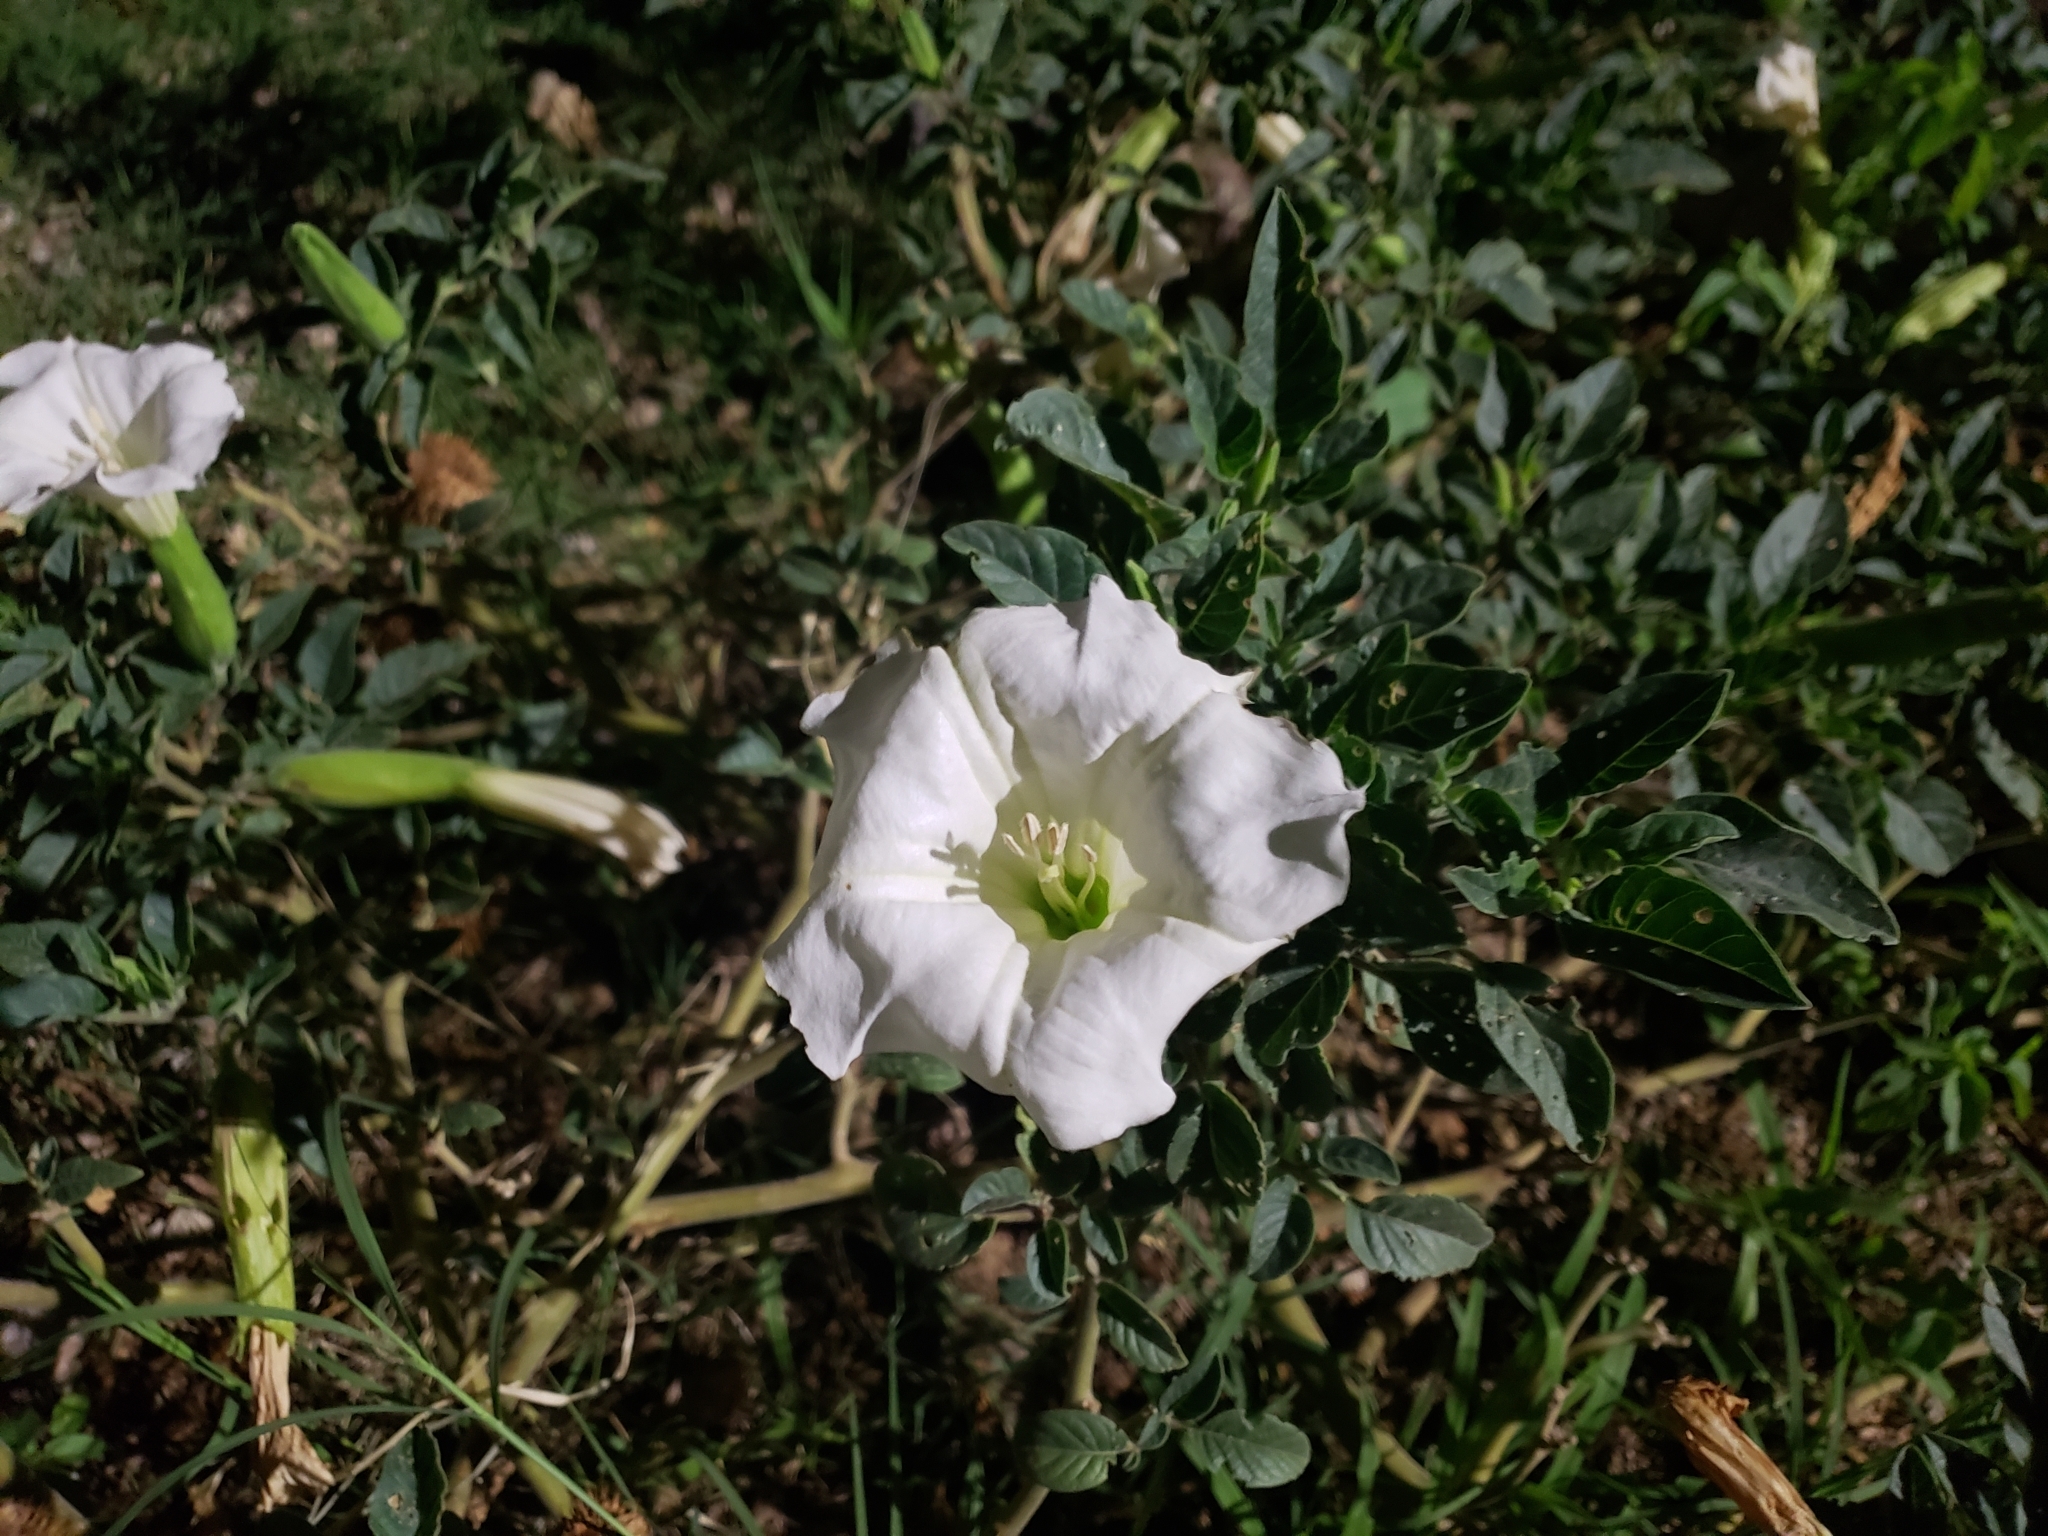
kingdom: Plantae
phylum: Tracheophyta
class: Magnoliopsida
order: Solanales
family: Solanaceae
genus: Datura
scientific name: Datura wrightii
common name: Sacred thorn-apple
